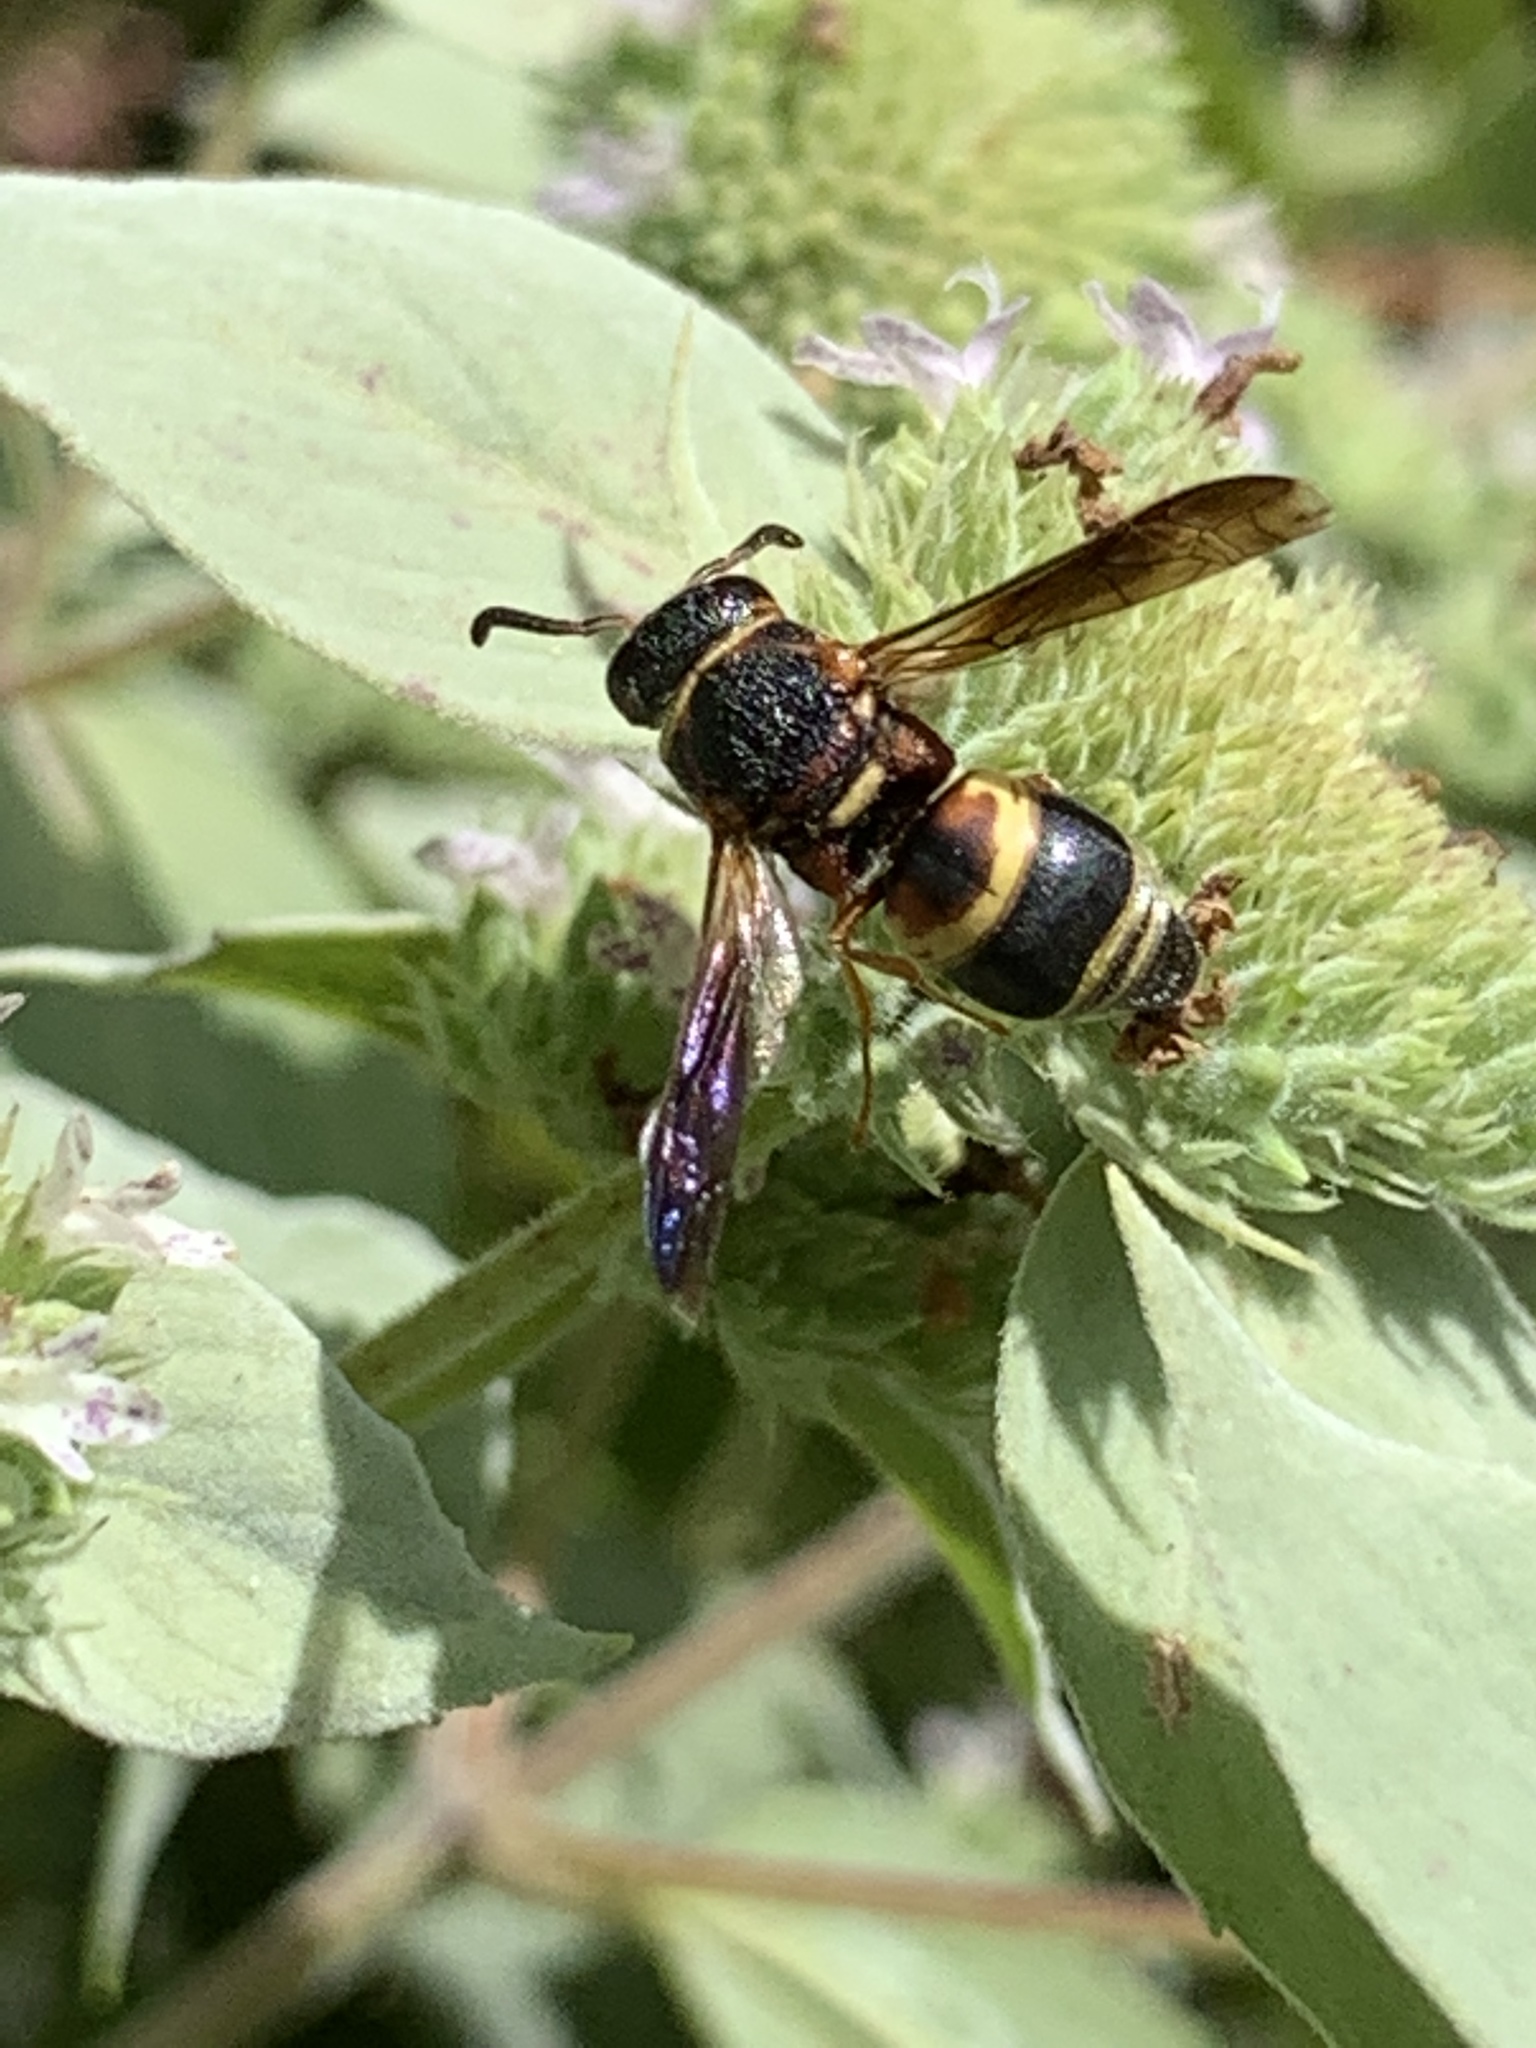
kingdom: Animalia
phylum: Arthropoda
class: Insecta
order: Hymenoptera
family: Eumenidae
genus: Euodynerus
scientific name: Euodynerus hidalgo
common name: Wasp
